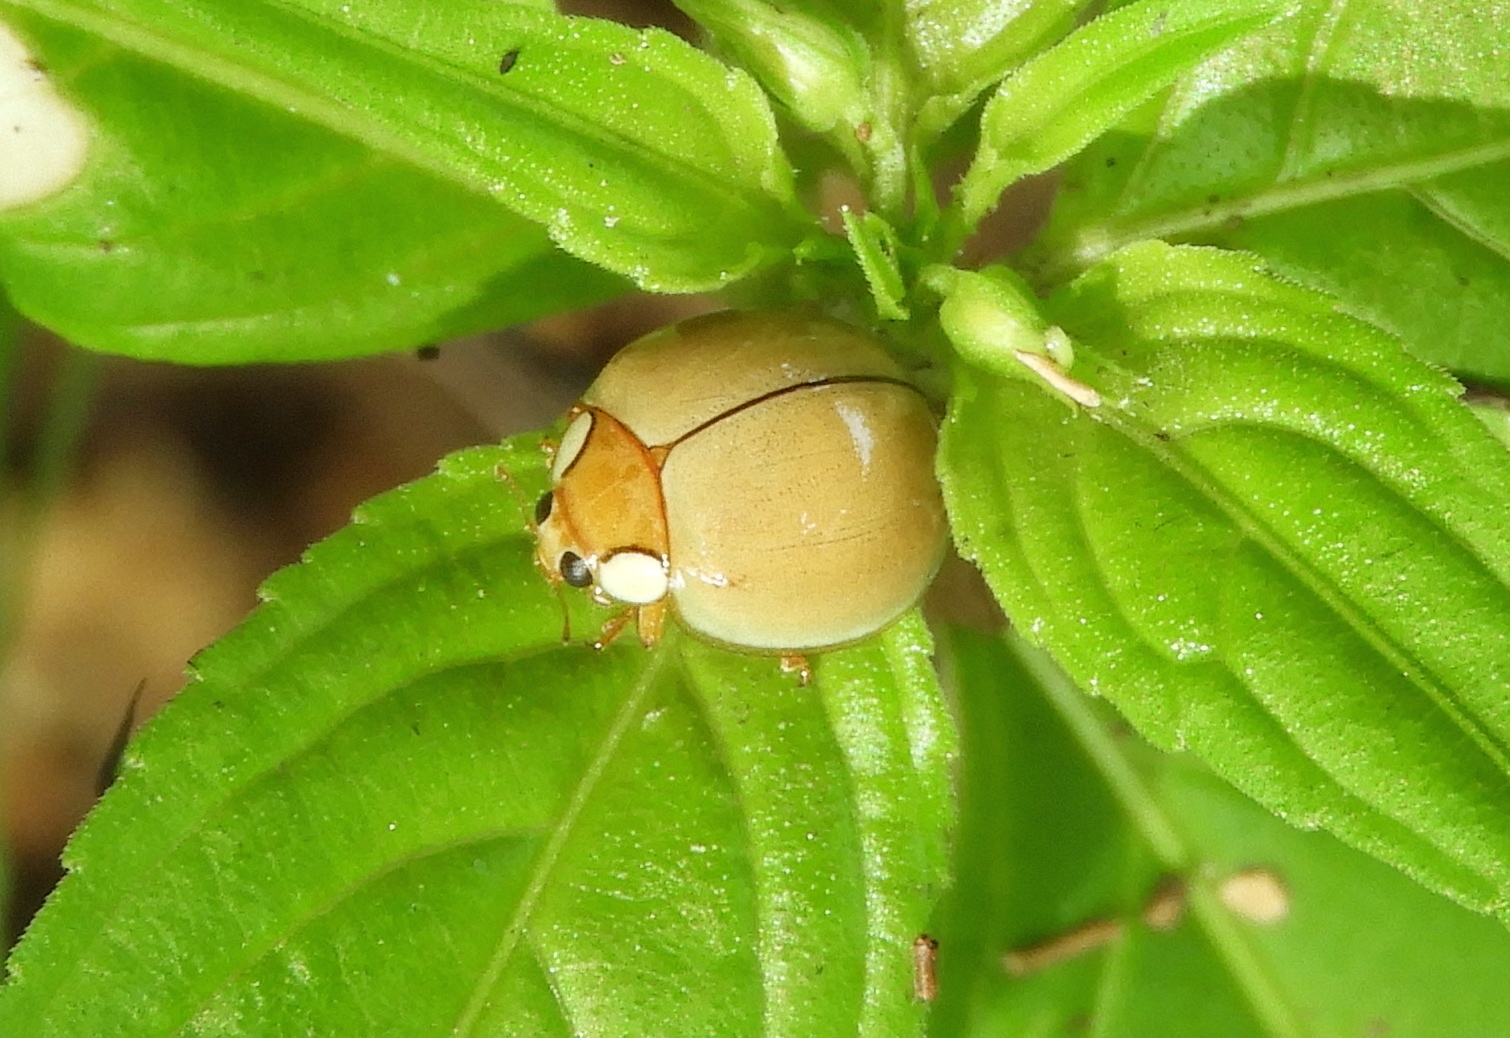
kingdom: Animalia
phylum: Arthropoda
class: Insecta
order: Coleoptera
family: Coccinellidae
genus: Paraneda
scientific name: Paraneda pallidula
